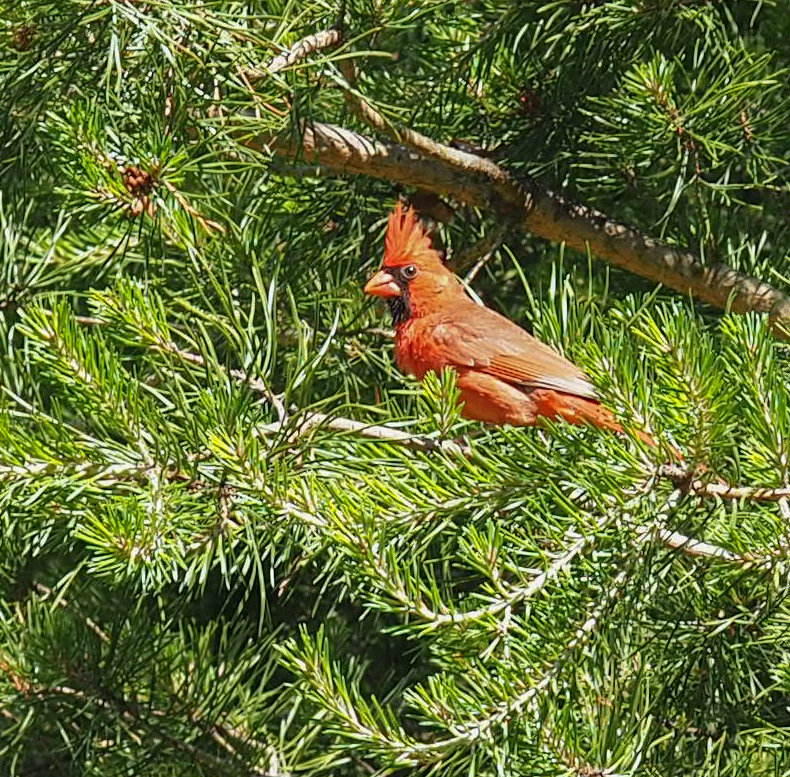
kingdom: Animalia
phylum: Chordata
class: Aves
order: Passeriformes
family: Cardinalidae
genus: Cardinalis
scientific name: Cardinalis cardinalis
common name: Northern cardinal
